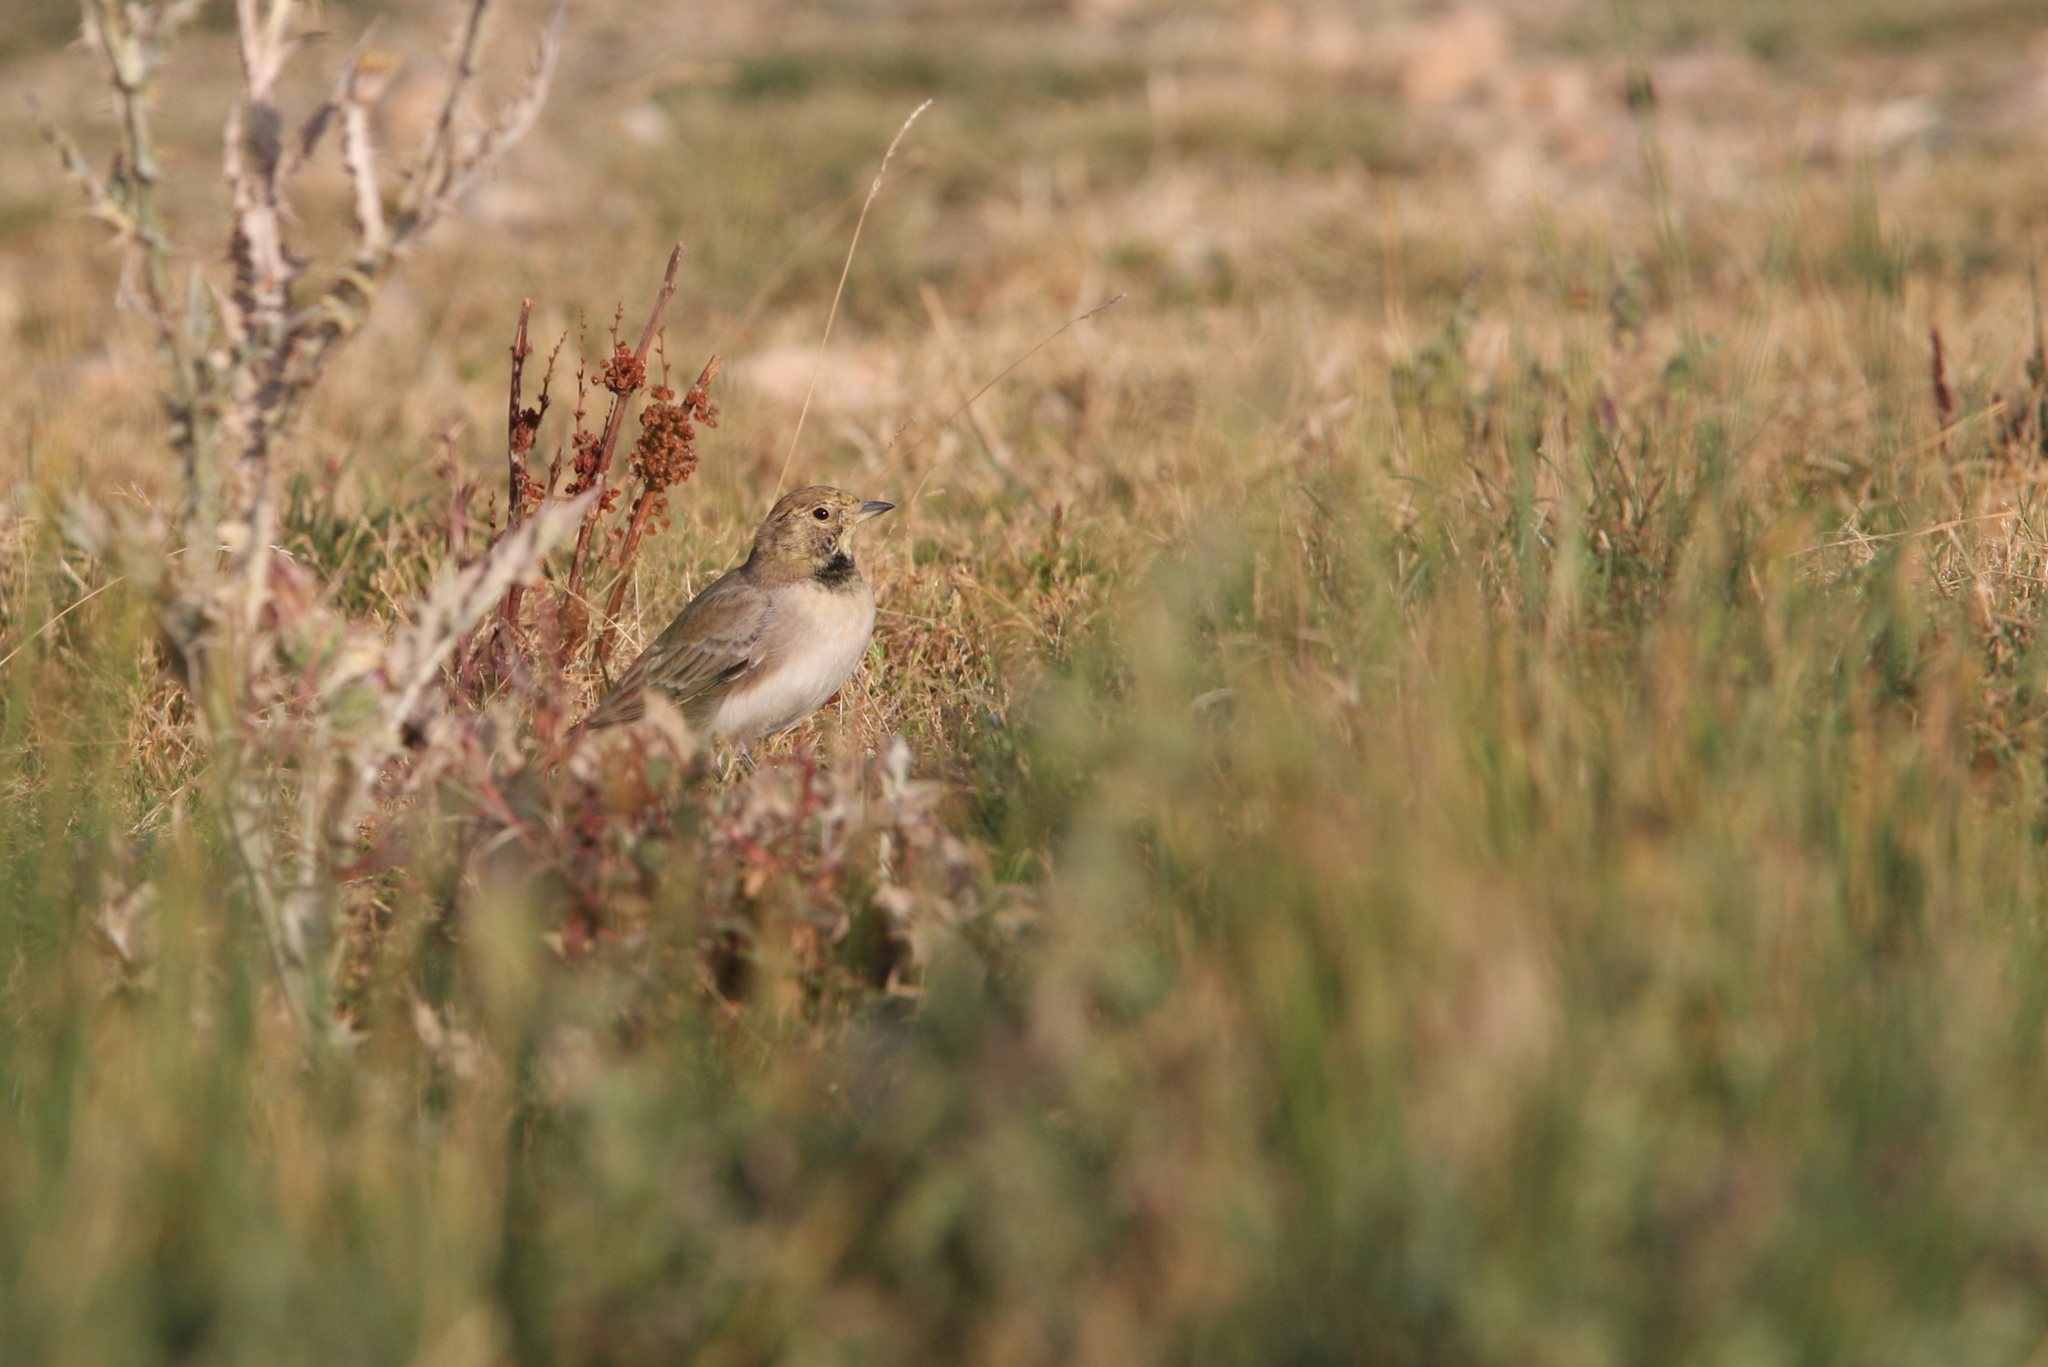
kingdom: Animalia
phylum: Chordata
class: Aves
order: Passeriformes
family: Alaudidae
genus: Eremophila
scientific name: Eremophila alpestris
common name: Horned lark
